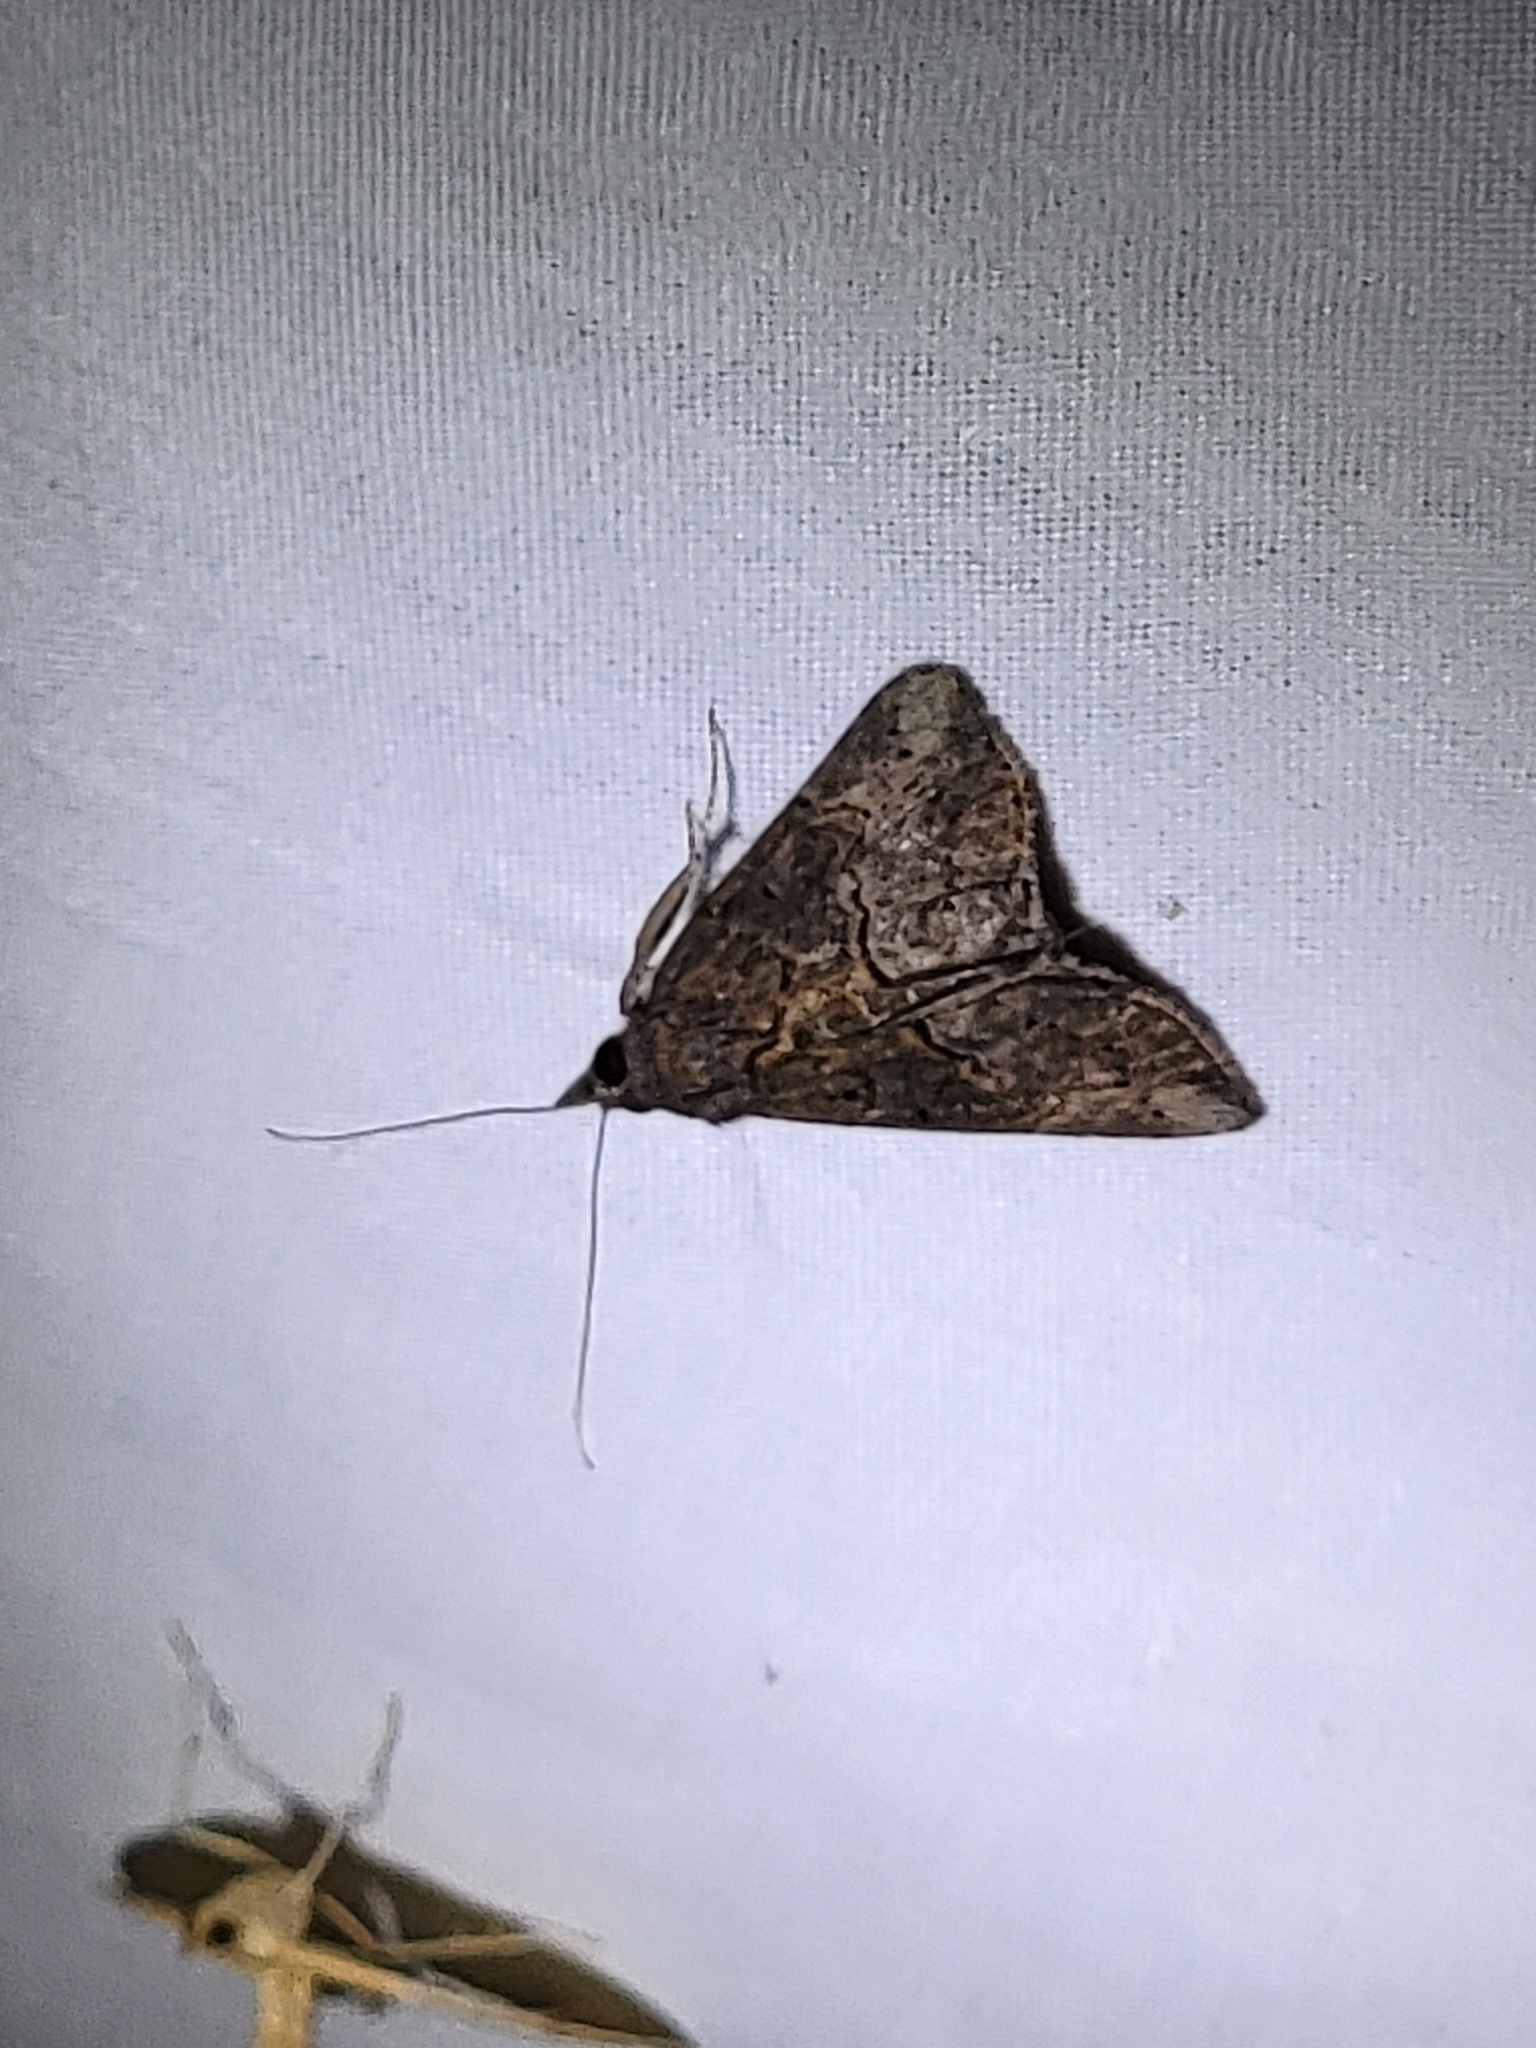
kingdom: Animalia
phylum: Arthropoda
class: Insecta
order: Lepidoptera
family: Erebidae
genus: Hypena
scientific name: Hypena scabra
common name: Green cloverworm
